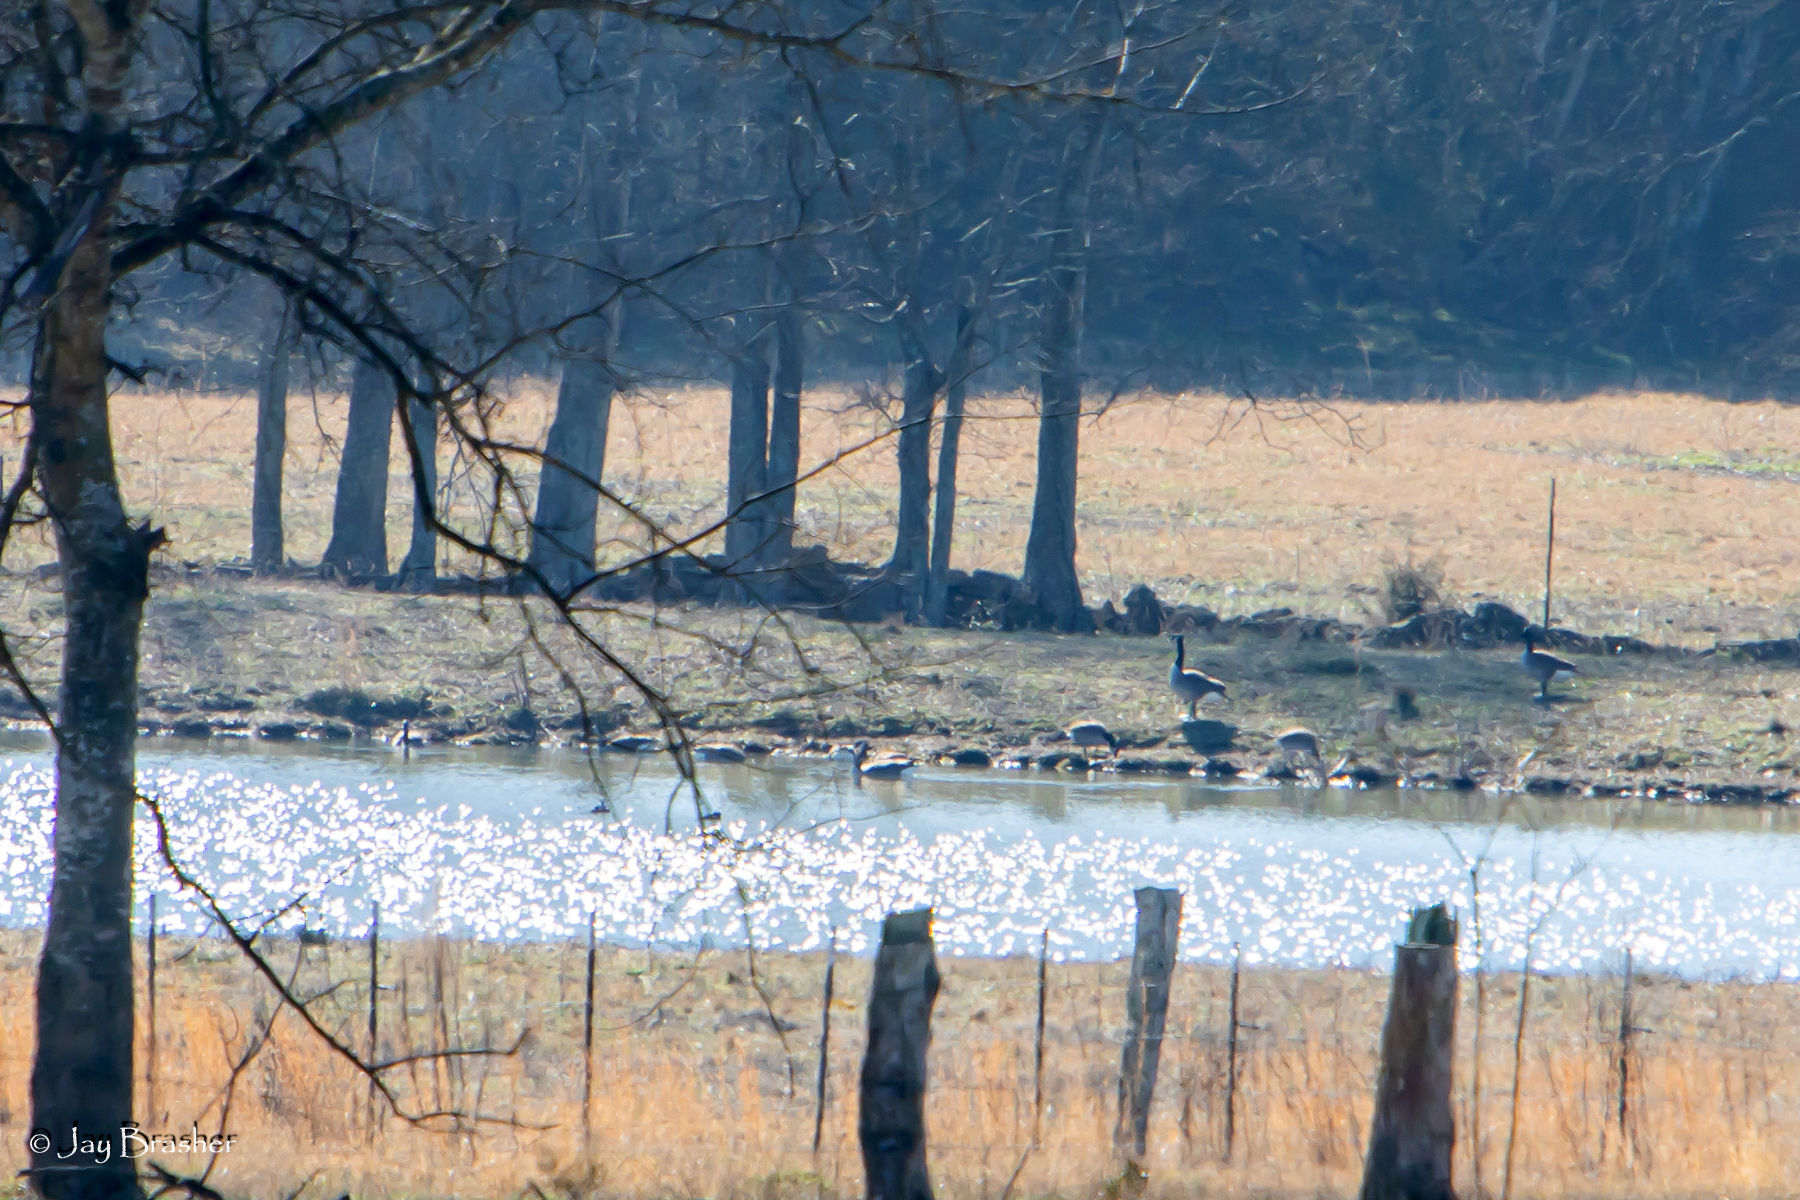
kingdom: Animalia
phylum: Chordata
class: Aves
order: Anseriformes
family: Anatidae
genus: Branta
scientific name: Branta canadensis
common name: Canada goose
